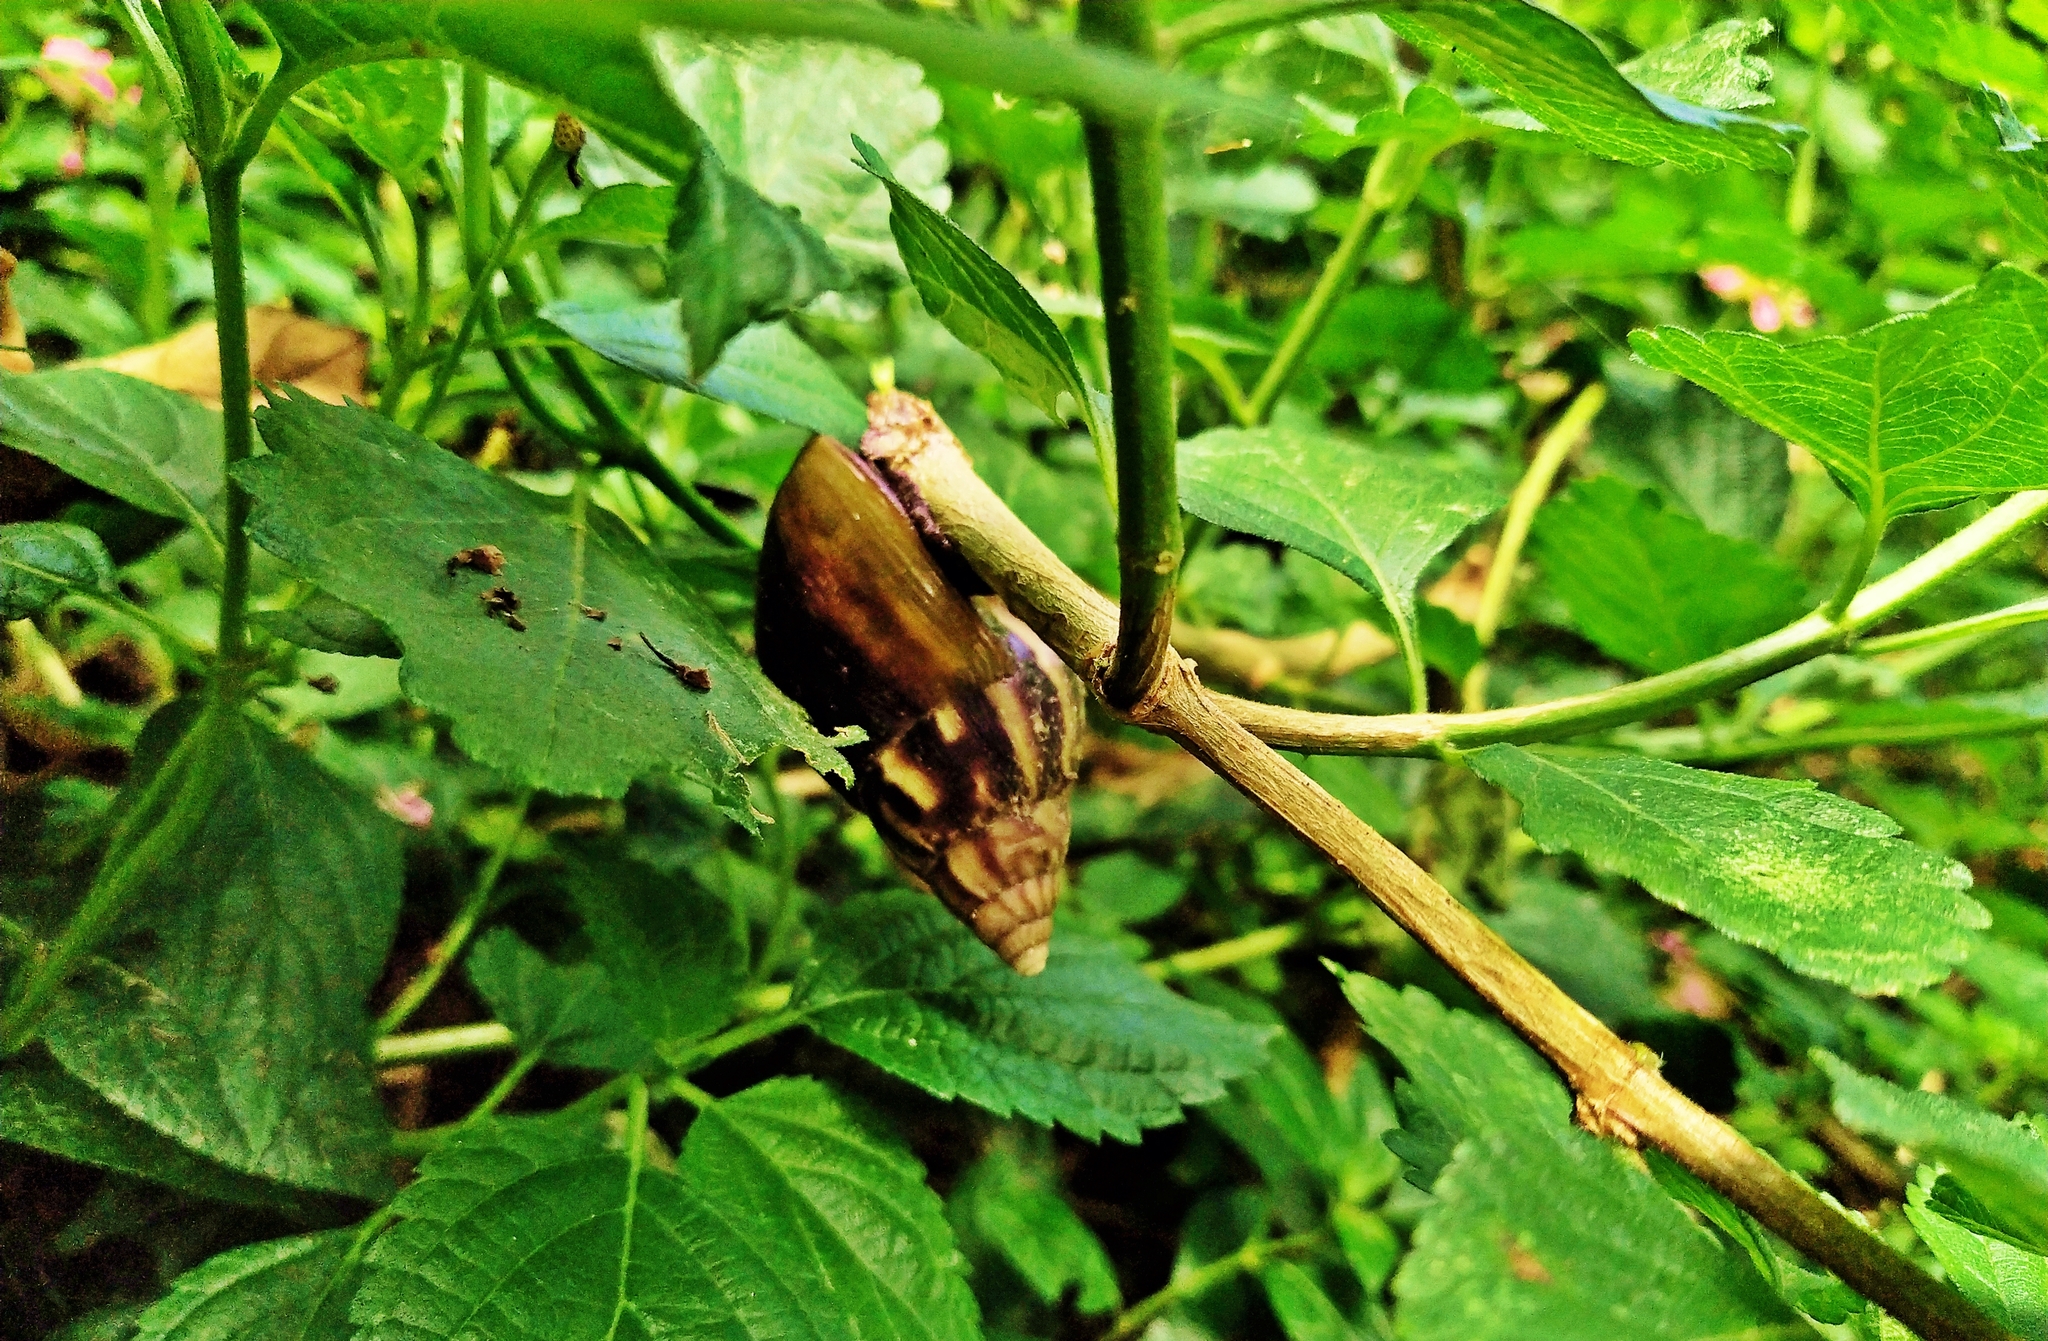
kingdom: Animalia
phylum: Mollusca
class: Gastropoda
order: Stylommatophora
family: Achatinidae
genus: Lissachatina
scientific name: Lissachatina fulica
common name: Giant african snail
